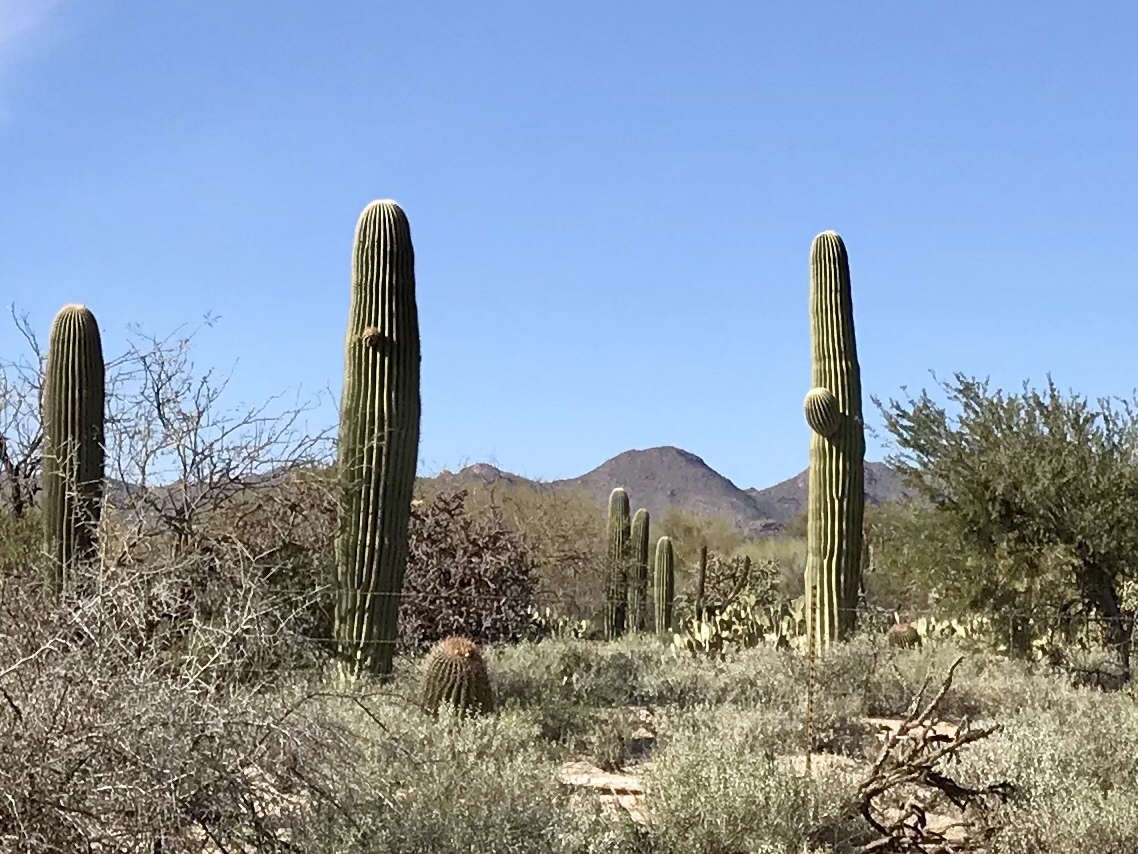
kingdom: Plantae
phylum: Tracheophyta
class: Magnoliopsida
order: Caryophyllales
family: Cactaceae
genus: Carnegiea
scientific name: Carnegiea gigantea
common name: Saguaro
